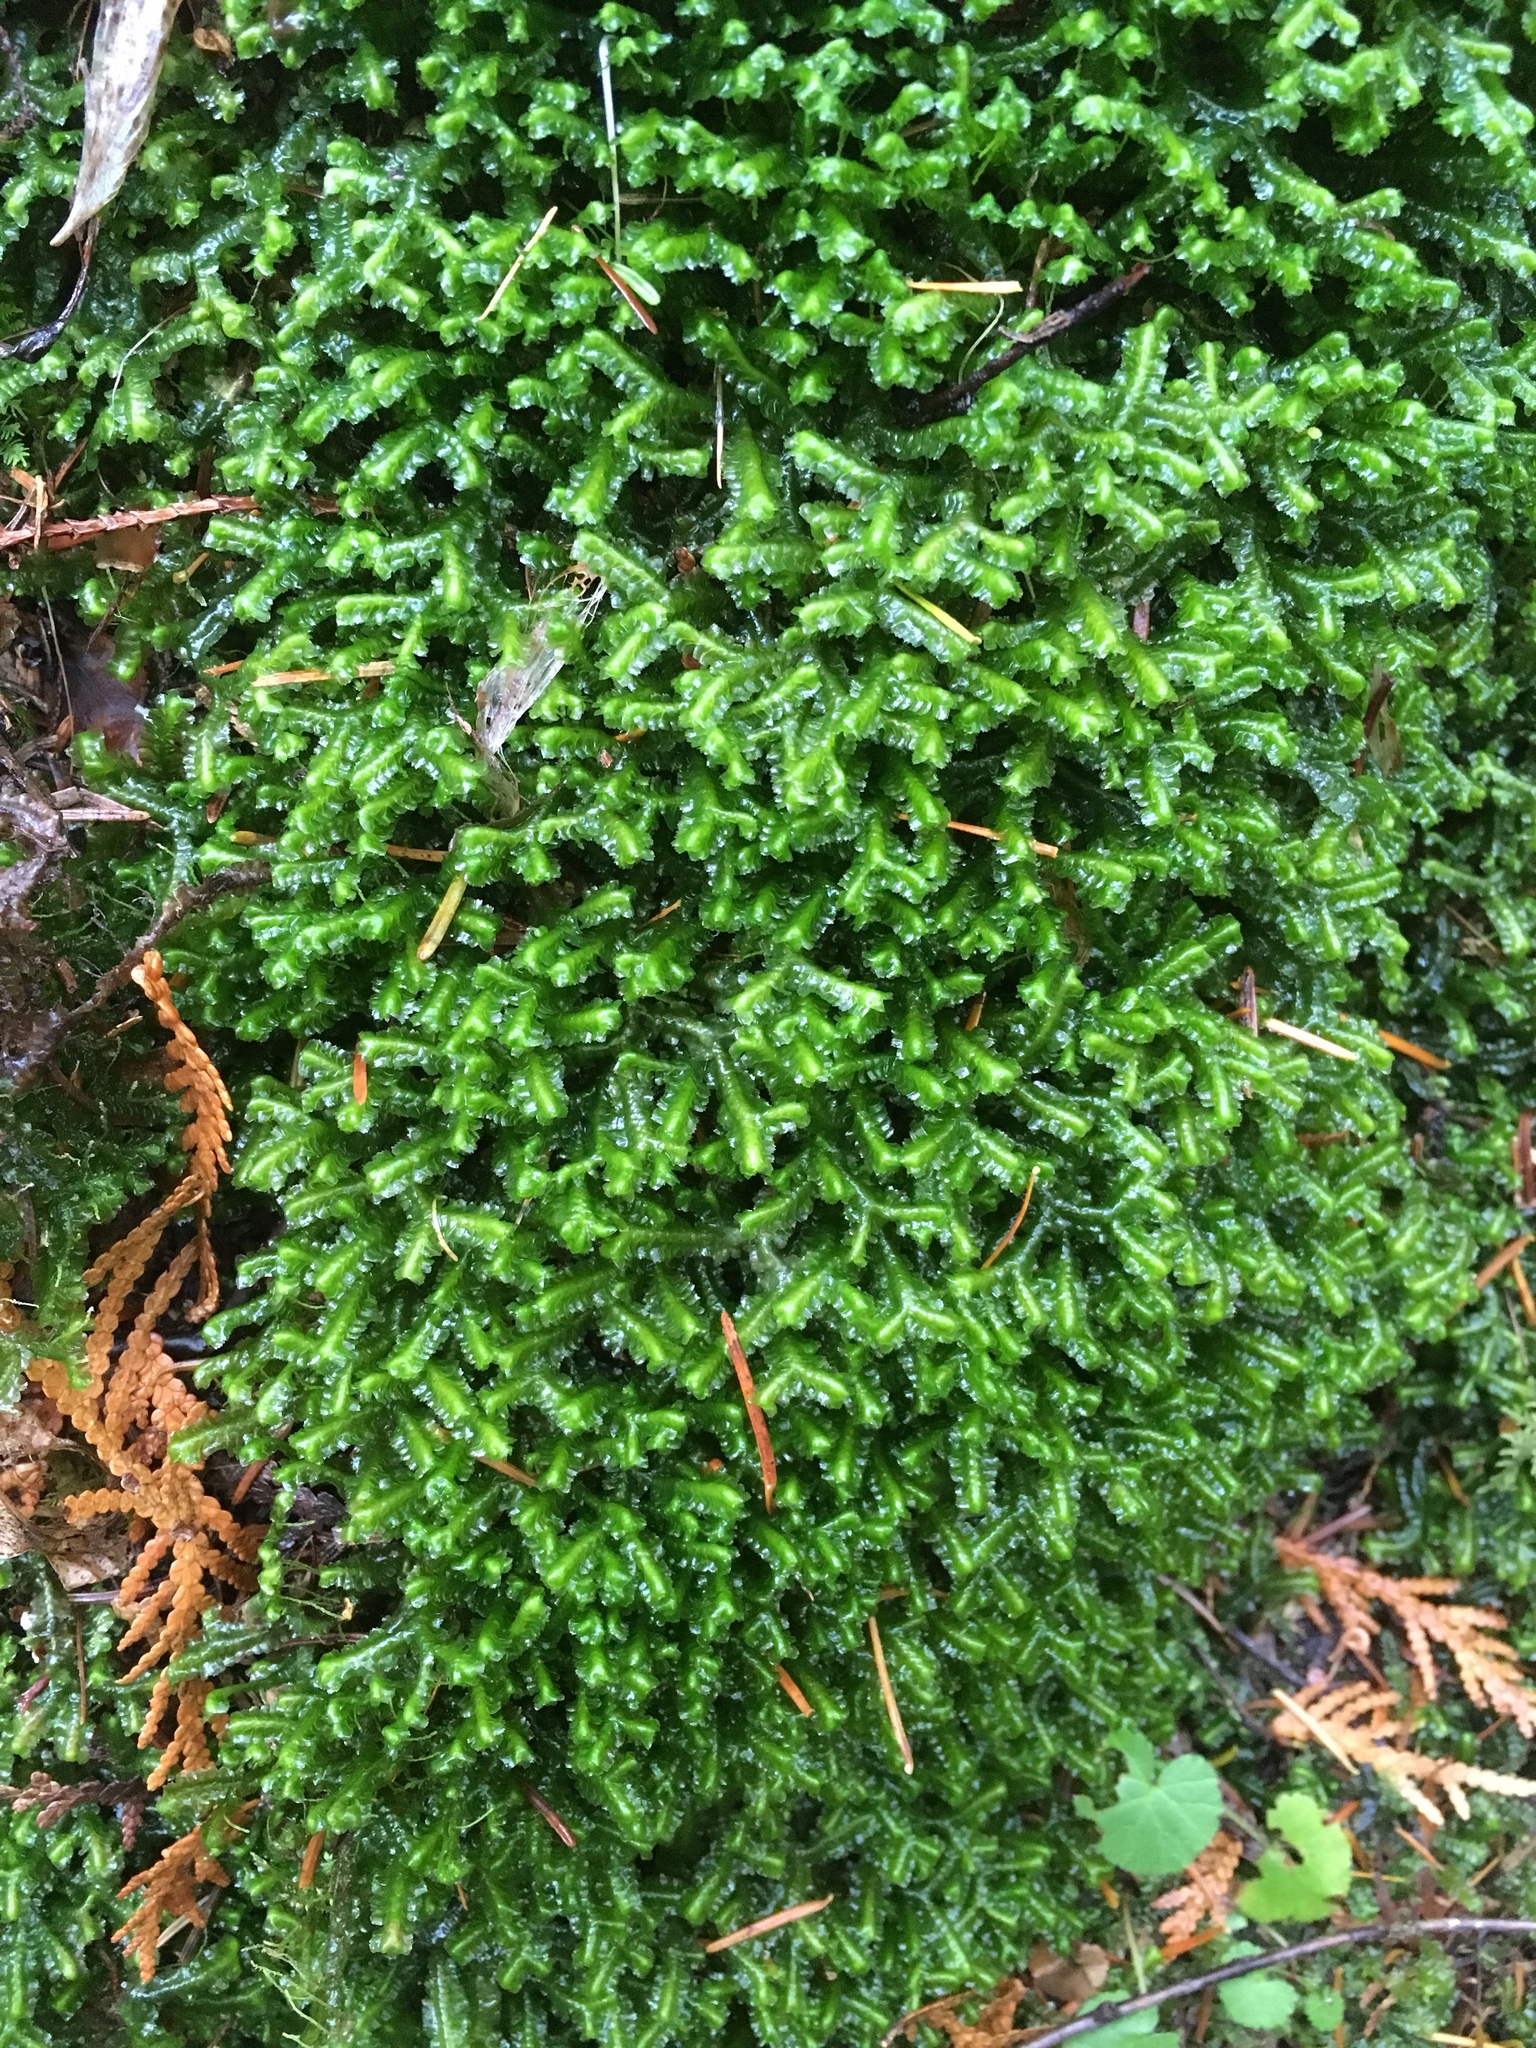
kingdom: Plantae
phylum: Marchantiophyta
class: Jungermanniopsida
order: Jungermanniales
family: Lepidoziaceae
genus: Bazzania
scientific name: Bazzania trilobata
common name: Three-lobed whipwort
